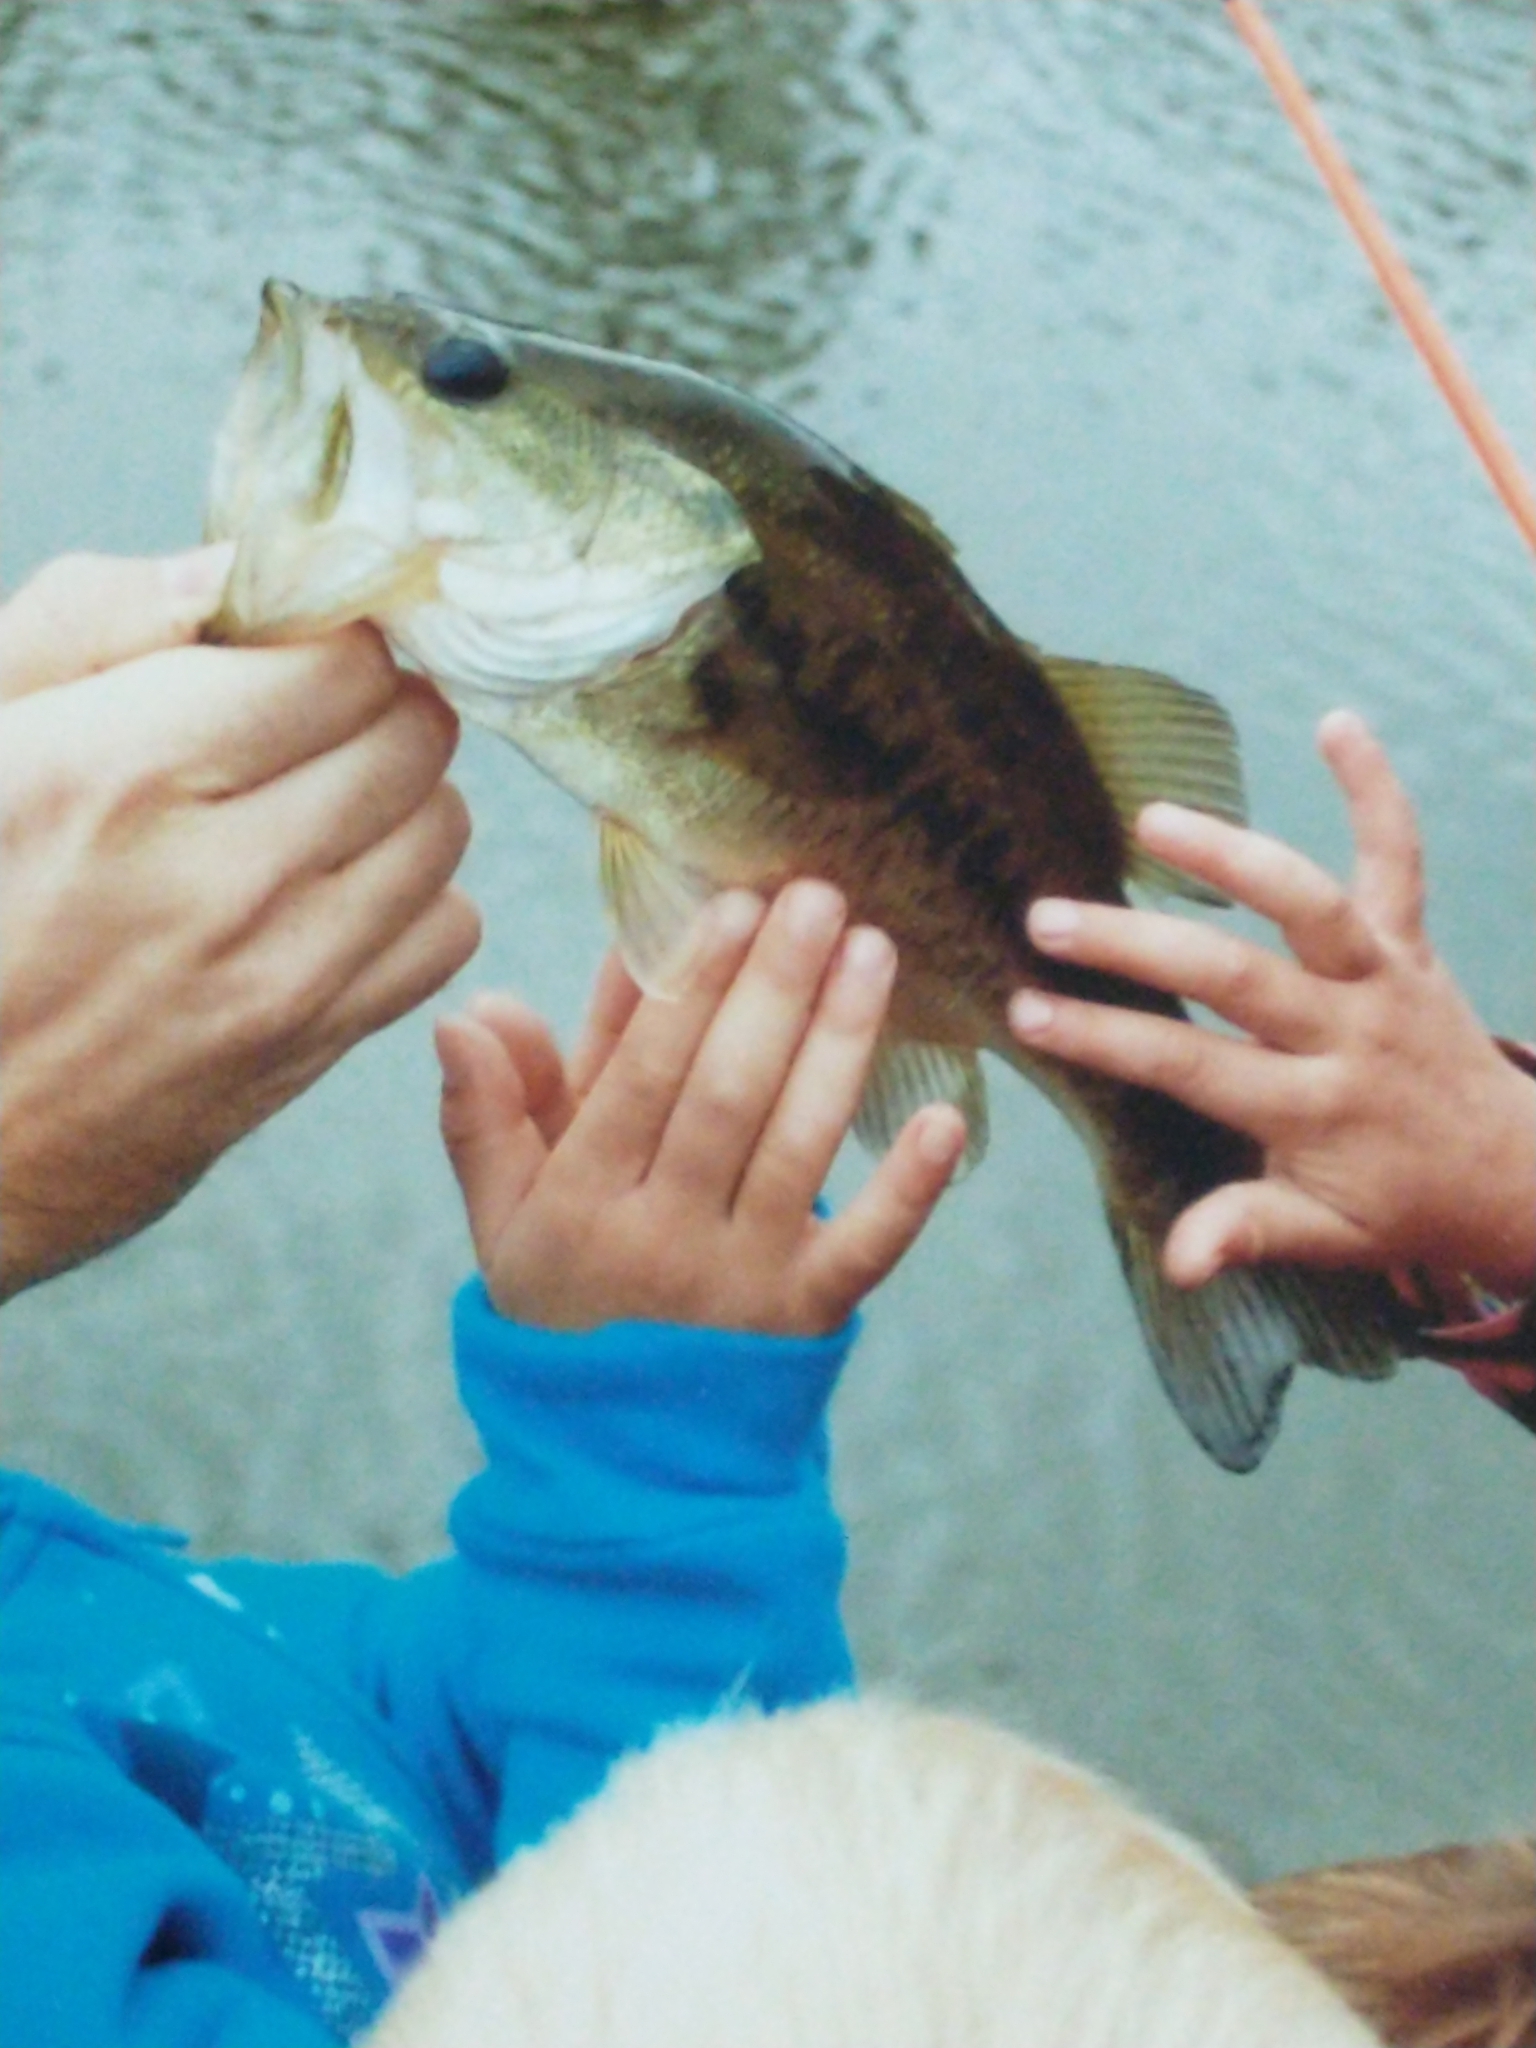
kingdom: Animalia
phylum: Chordata
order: Perciformes
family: Centrarchidae
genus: Micropterus
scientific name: Micropterus
